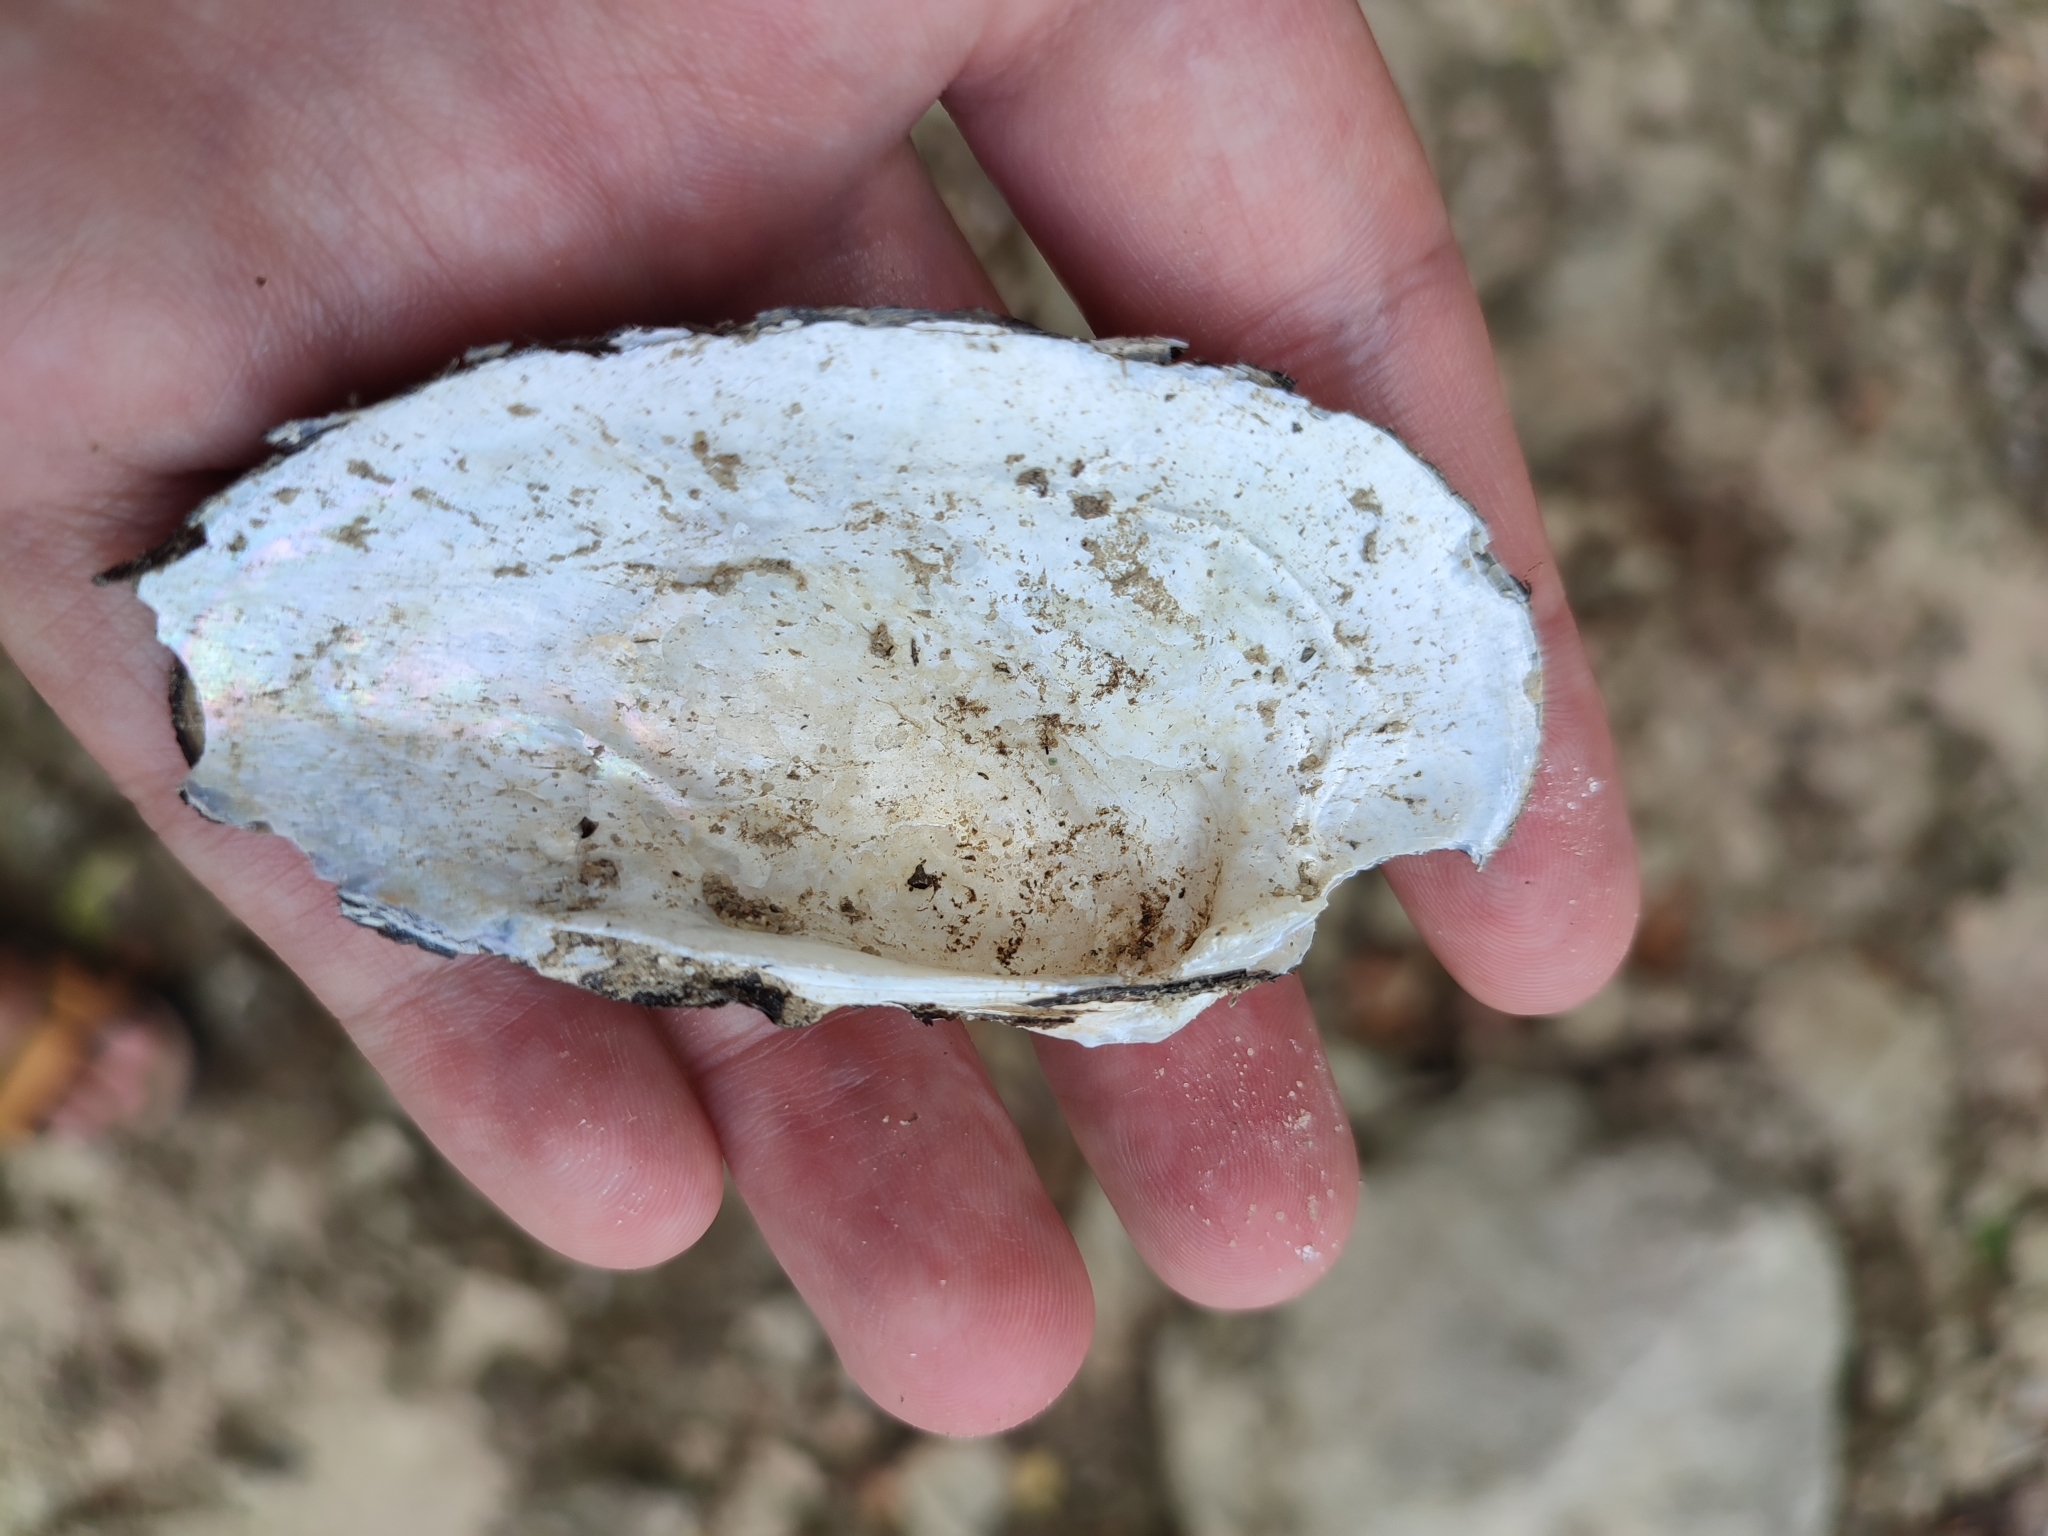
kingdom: Animalia
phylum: Mollusca
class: Bivalvia
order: Unionida
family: Unionidae
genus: Unio
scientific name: Unio tumidus
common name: Swollen river mussel
